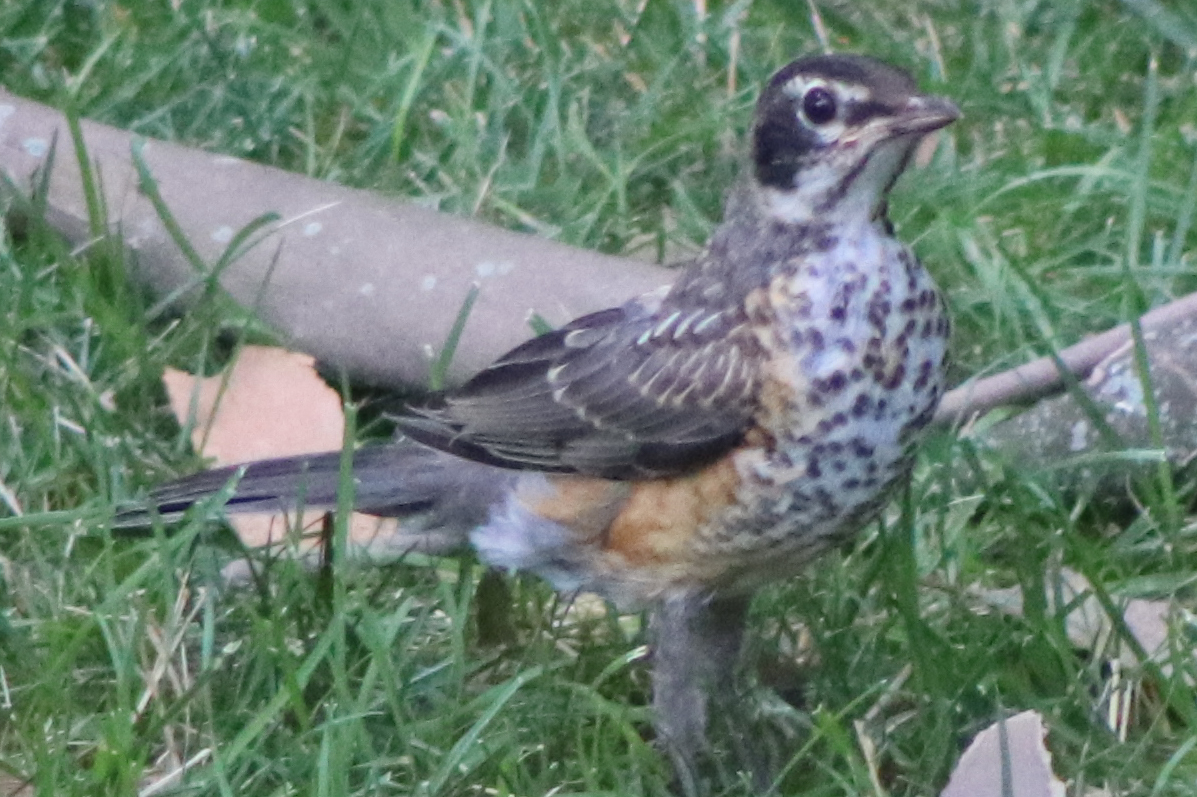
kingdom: Animalia
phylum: Chordata
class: Aves
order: Passeriformes
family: Turdidae
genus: Turdus
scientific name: Turdus migratorius
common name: American robin
